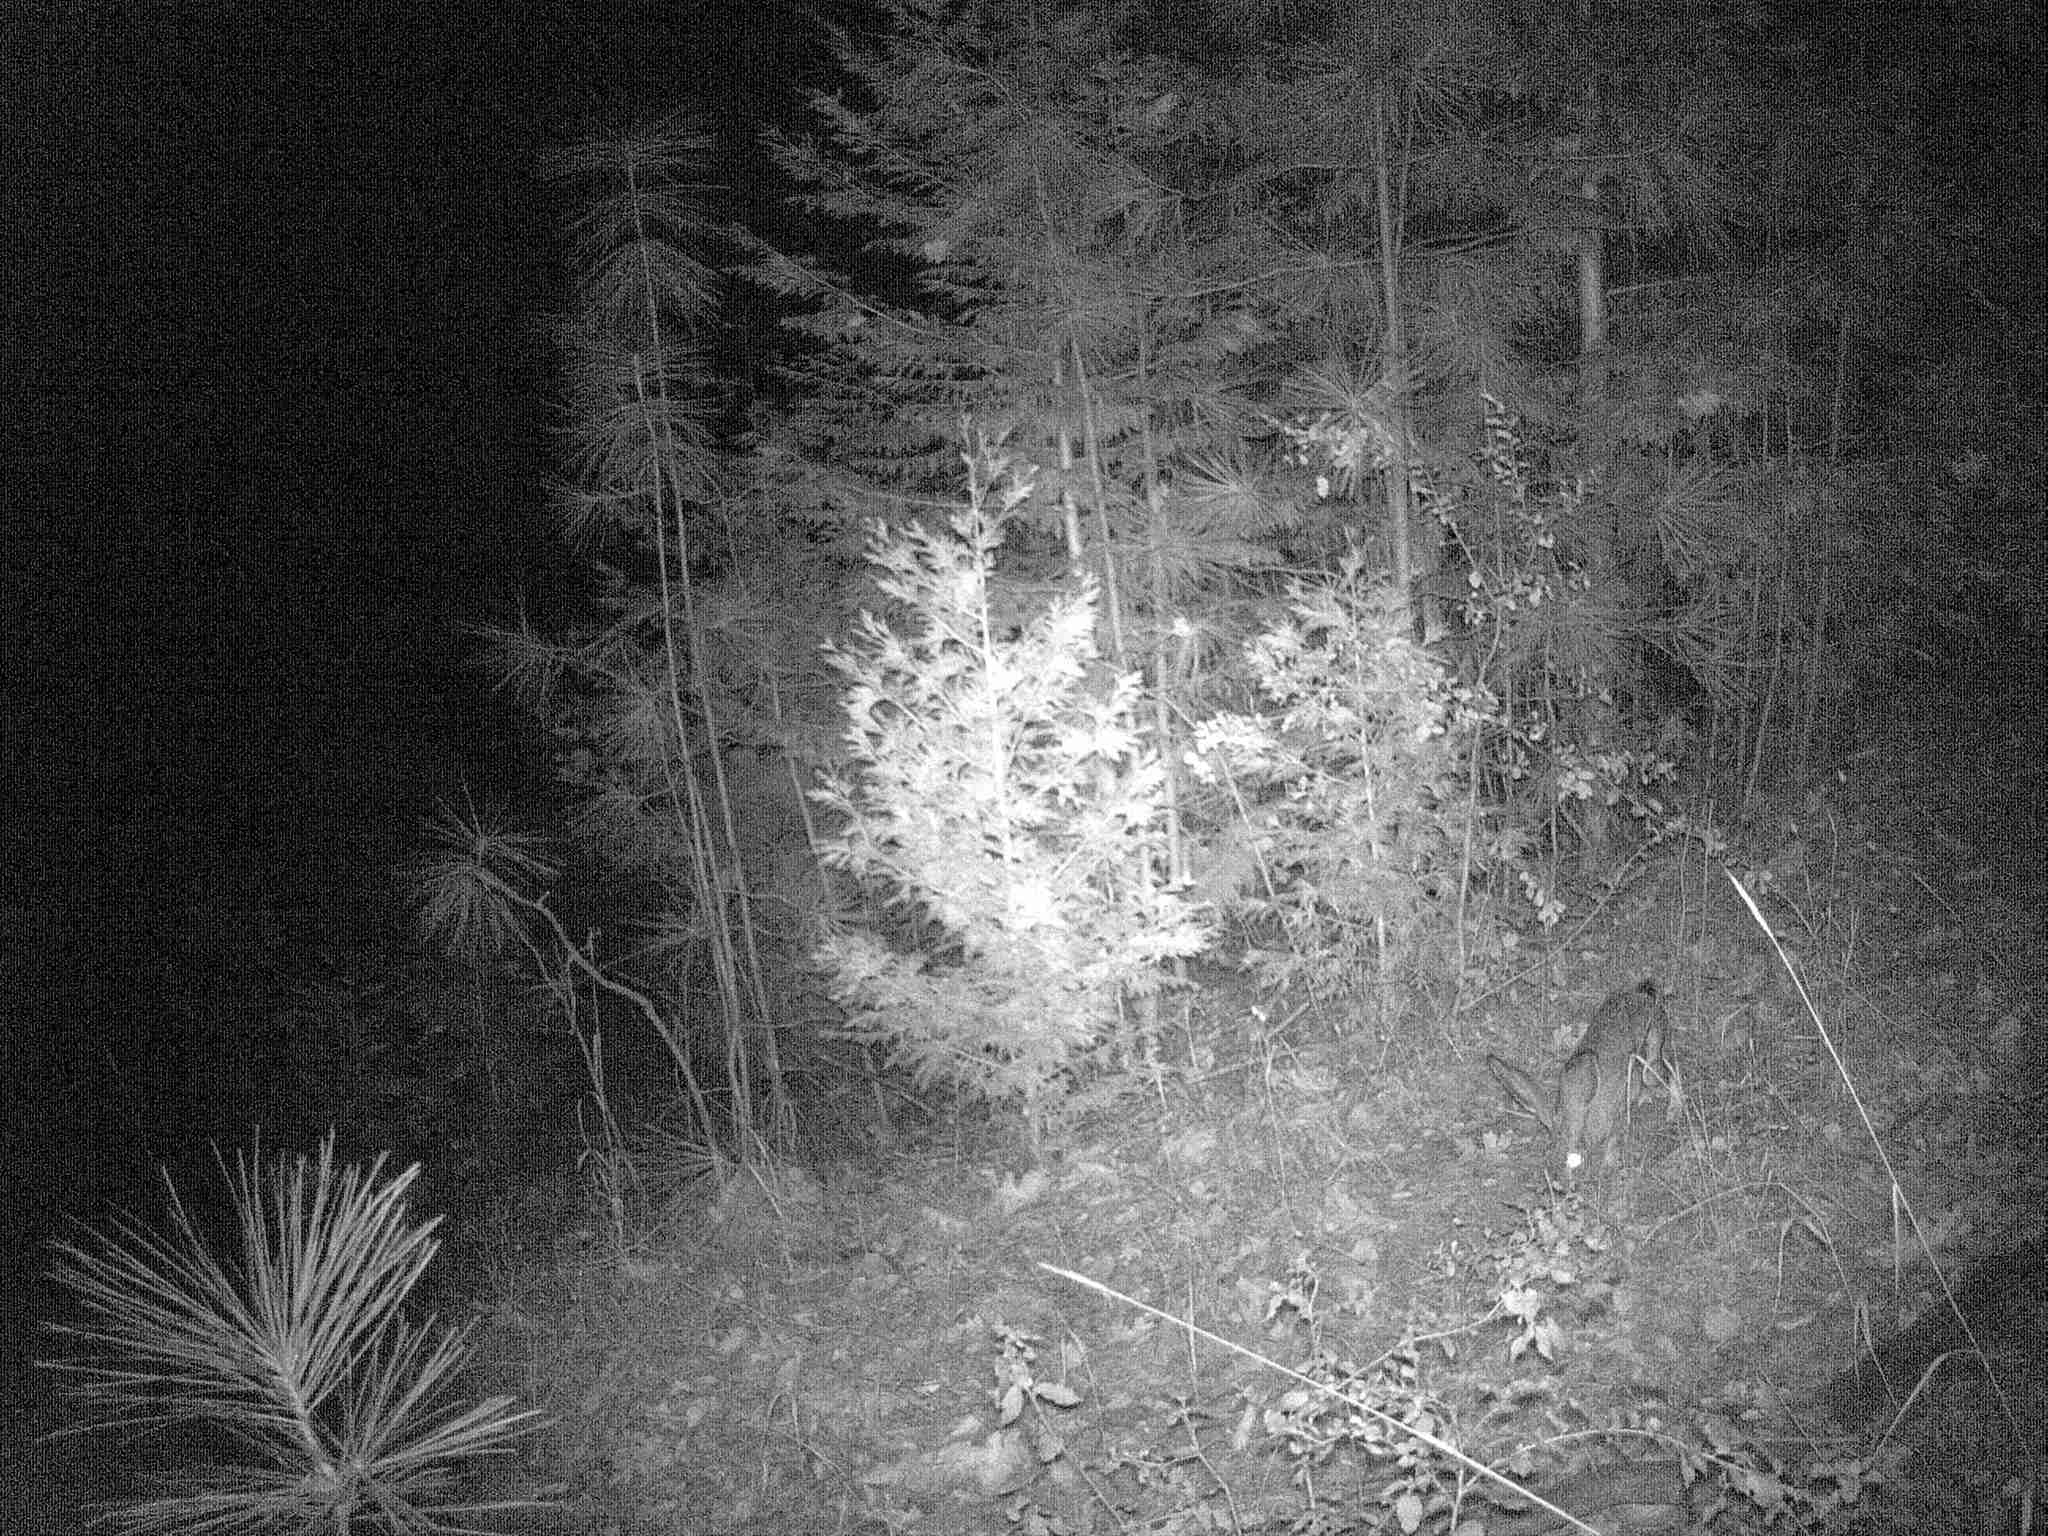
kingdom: Animalia
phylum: Chordata
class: Mammalia
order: Lagomorpha
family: Leporidae
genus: Lepus
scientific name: Lepus californicus
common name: Black-tailed jackrabbit
